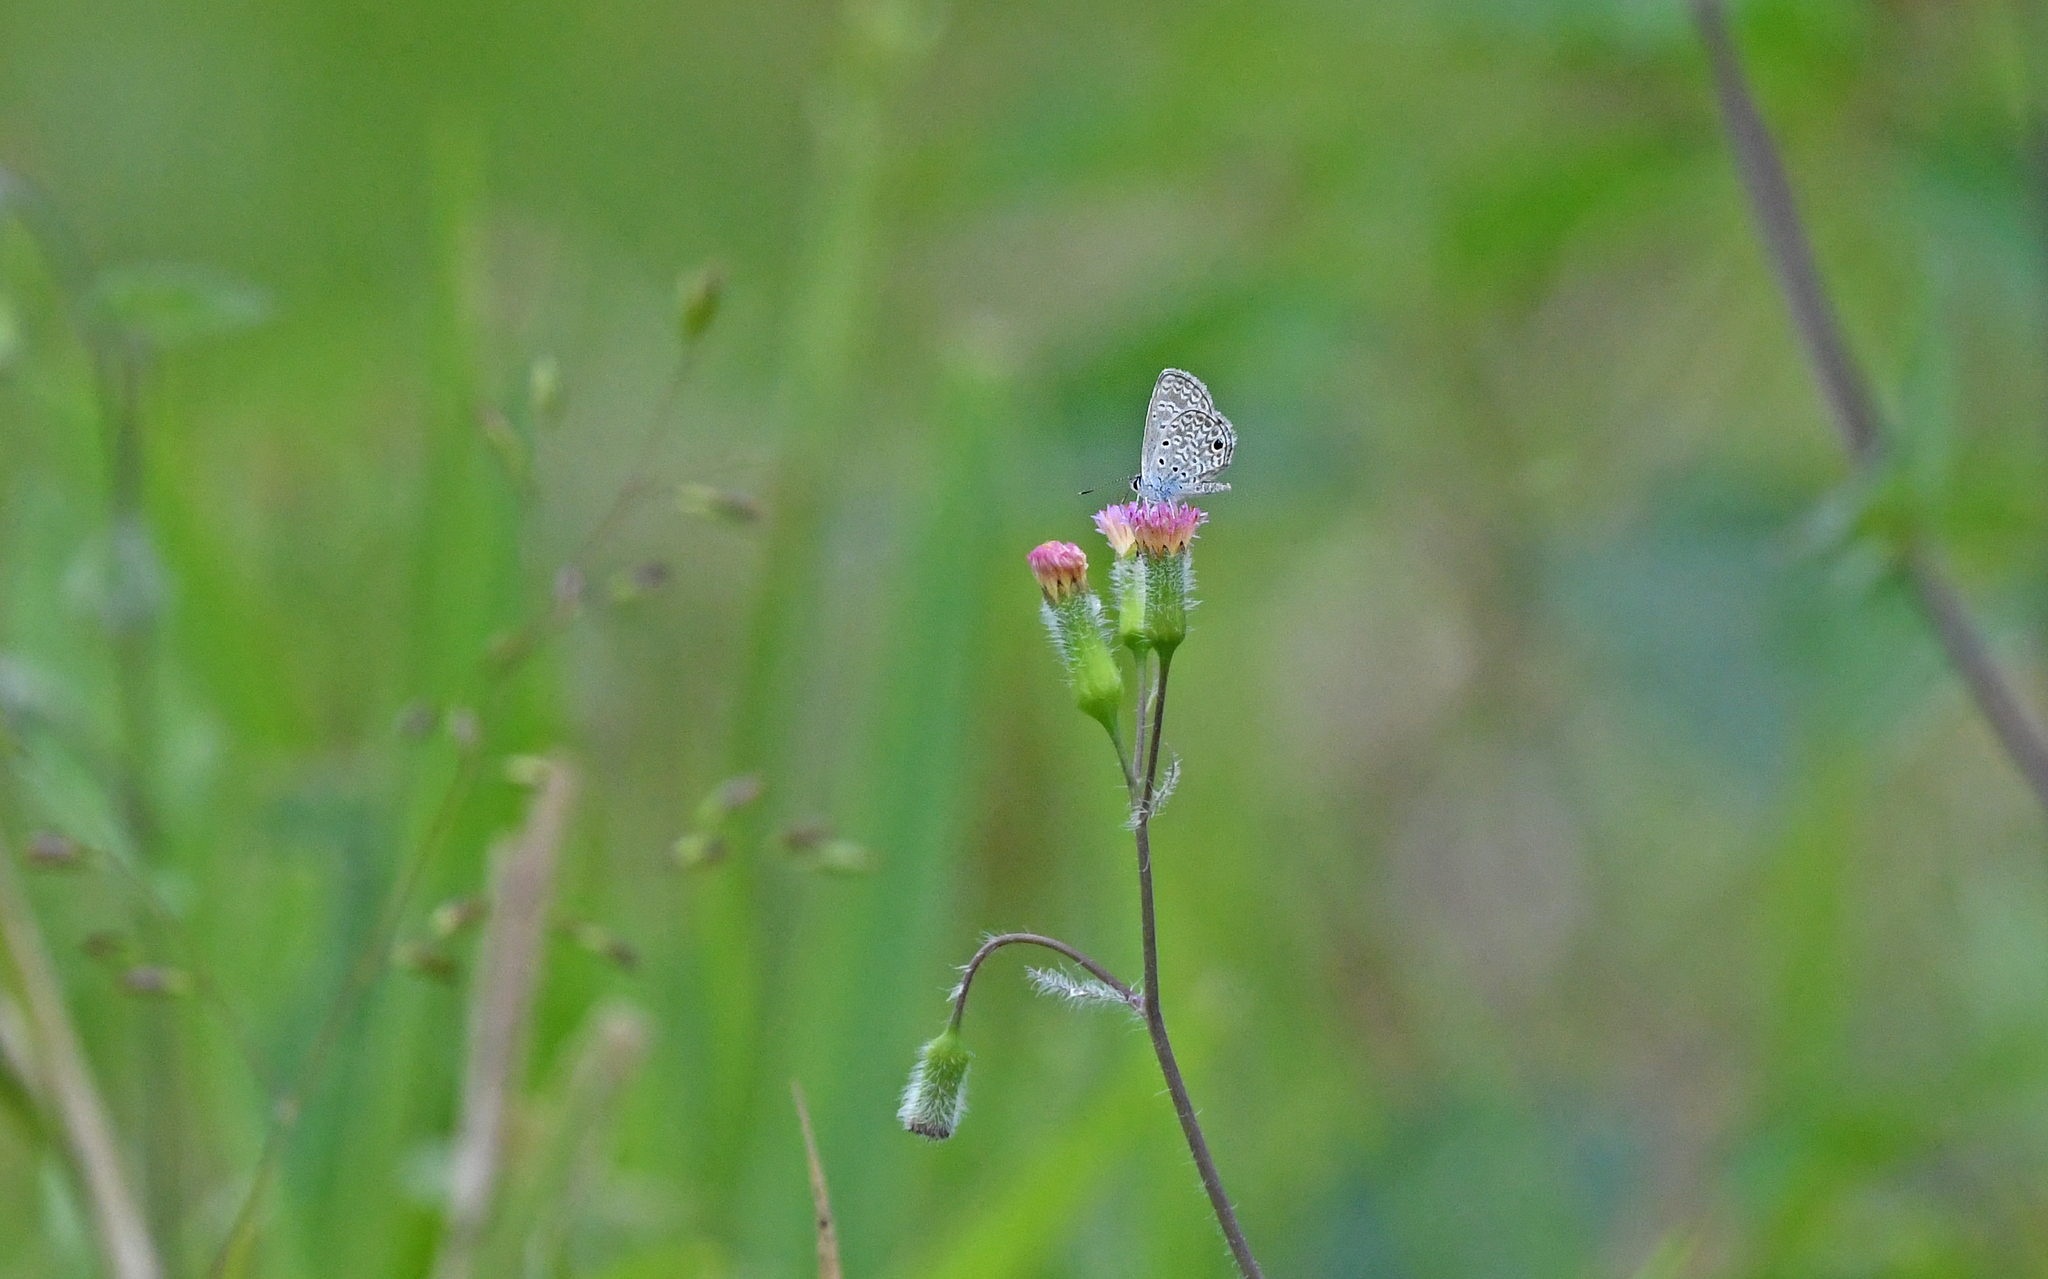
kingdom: Animalia
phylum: Arthropoda
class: Insecta
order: Lepidoptera
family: Lycaenidae
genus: Hemiargus
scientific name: Hemiargus hanno
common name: Common blue
